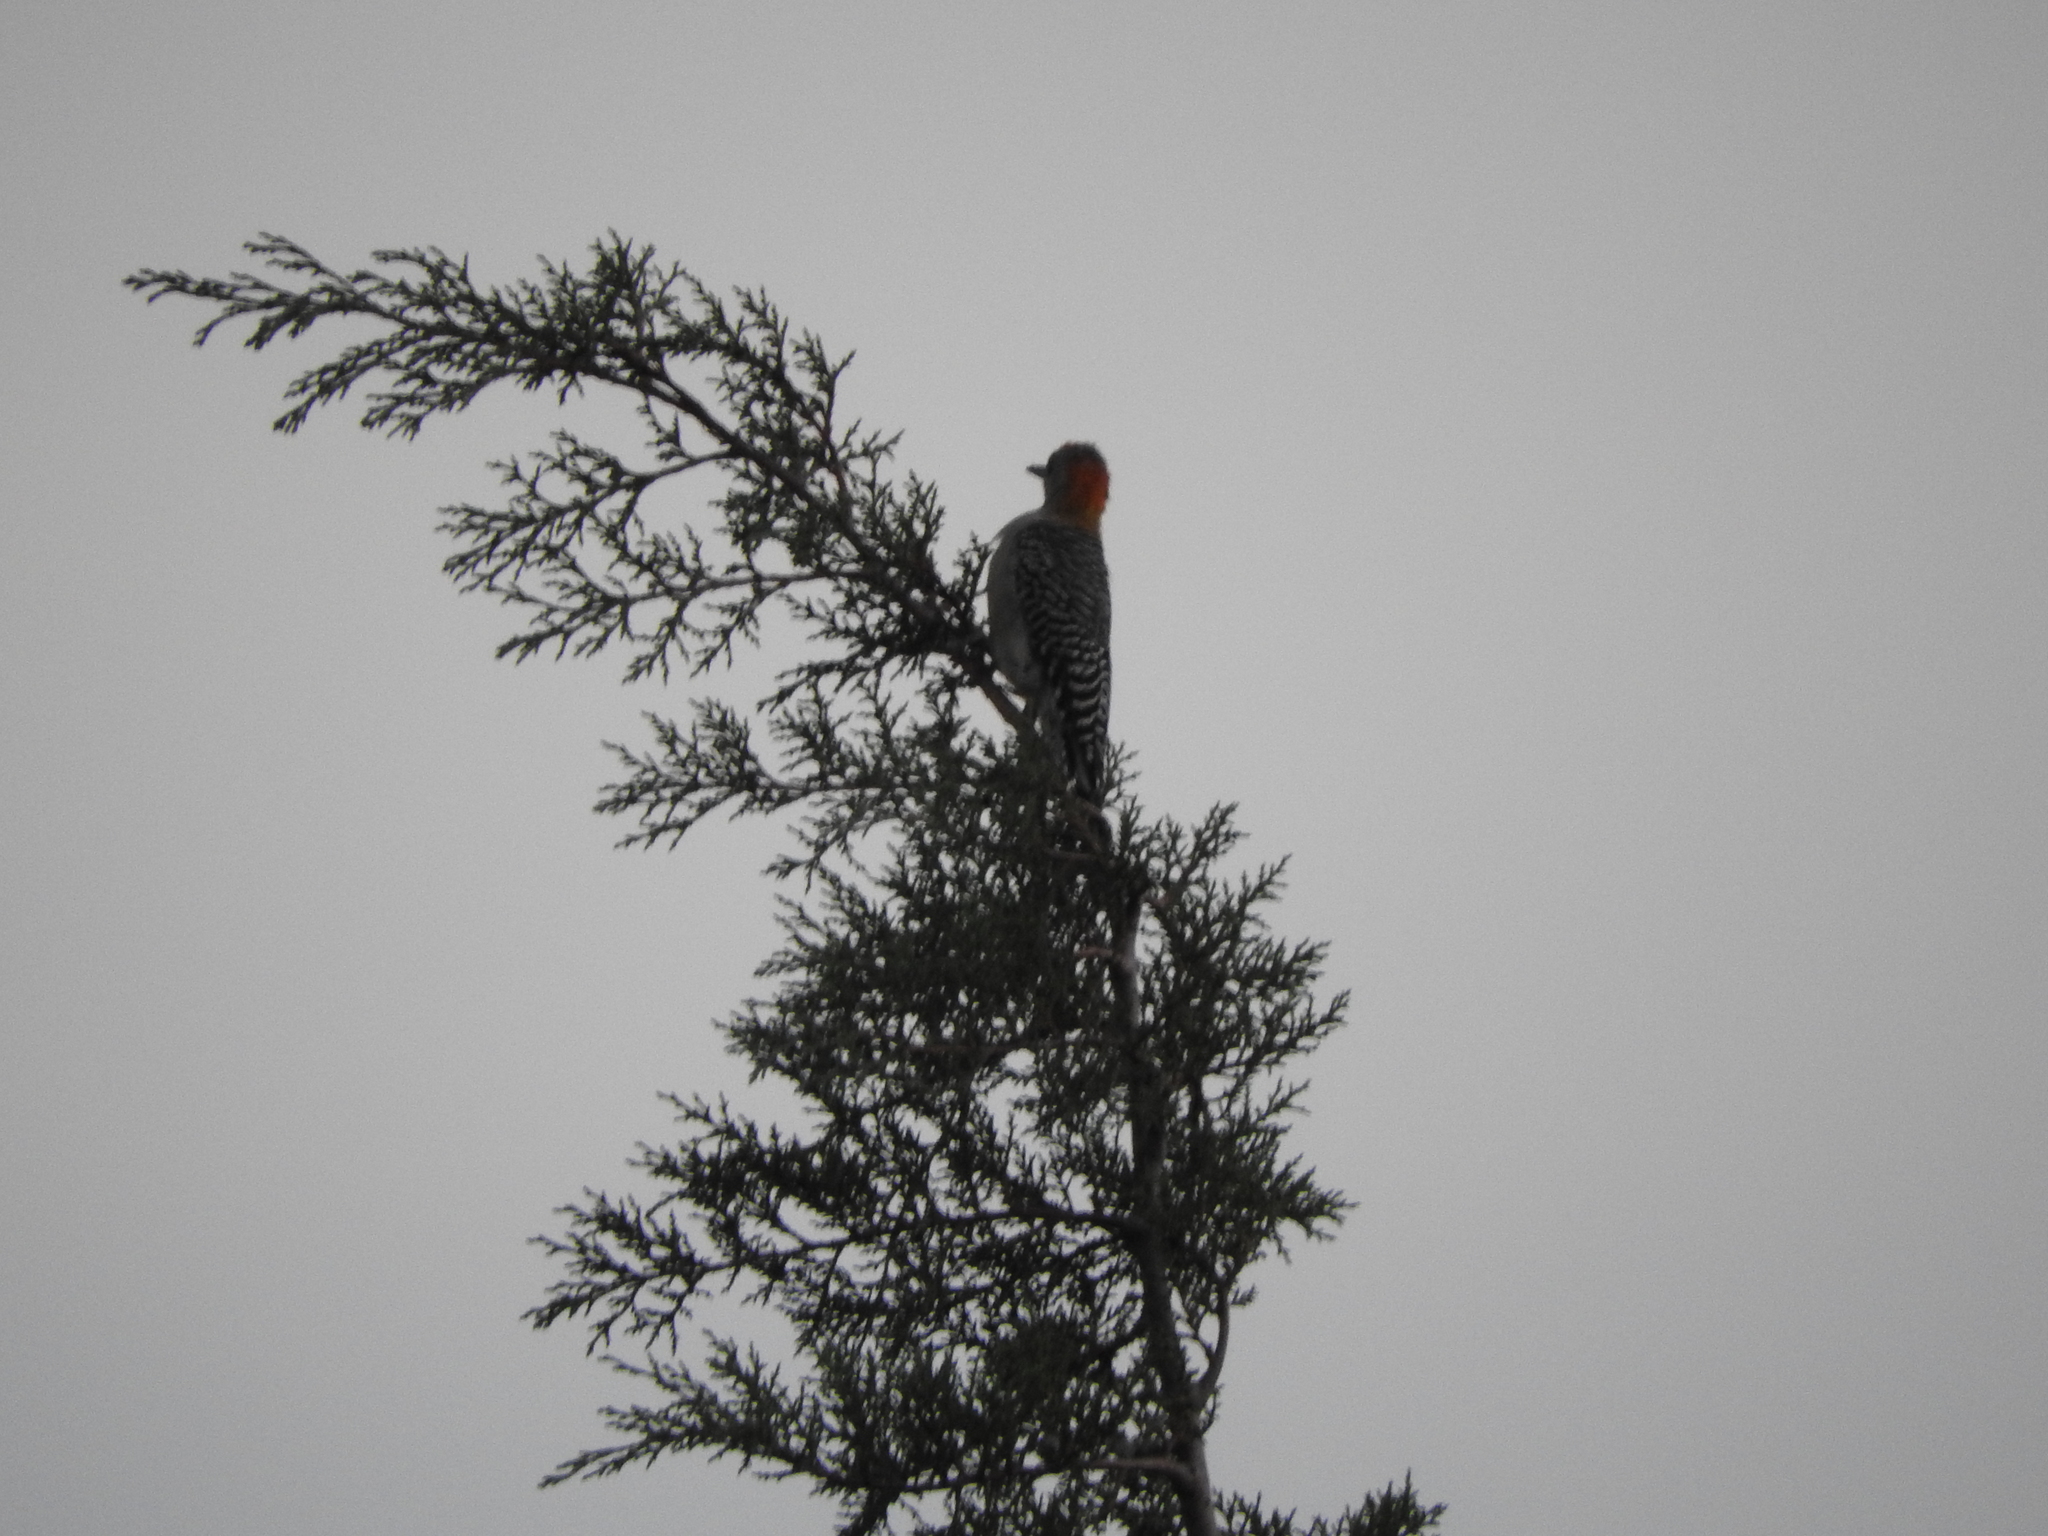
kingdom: Animalia
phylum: Chordata
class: Aves
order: Piciformes
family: Picidae
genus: Melanerpes
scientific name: Melanerpes aurifrons
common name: Golden-fronted woodpecker
